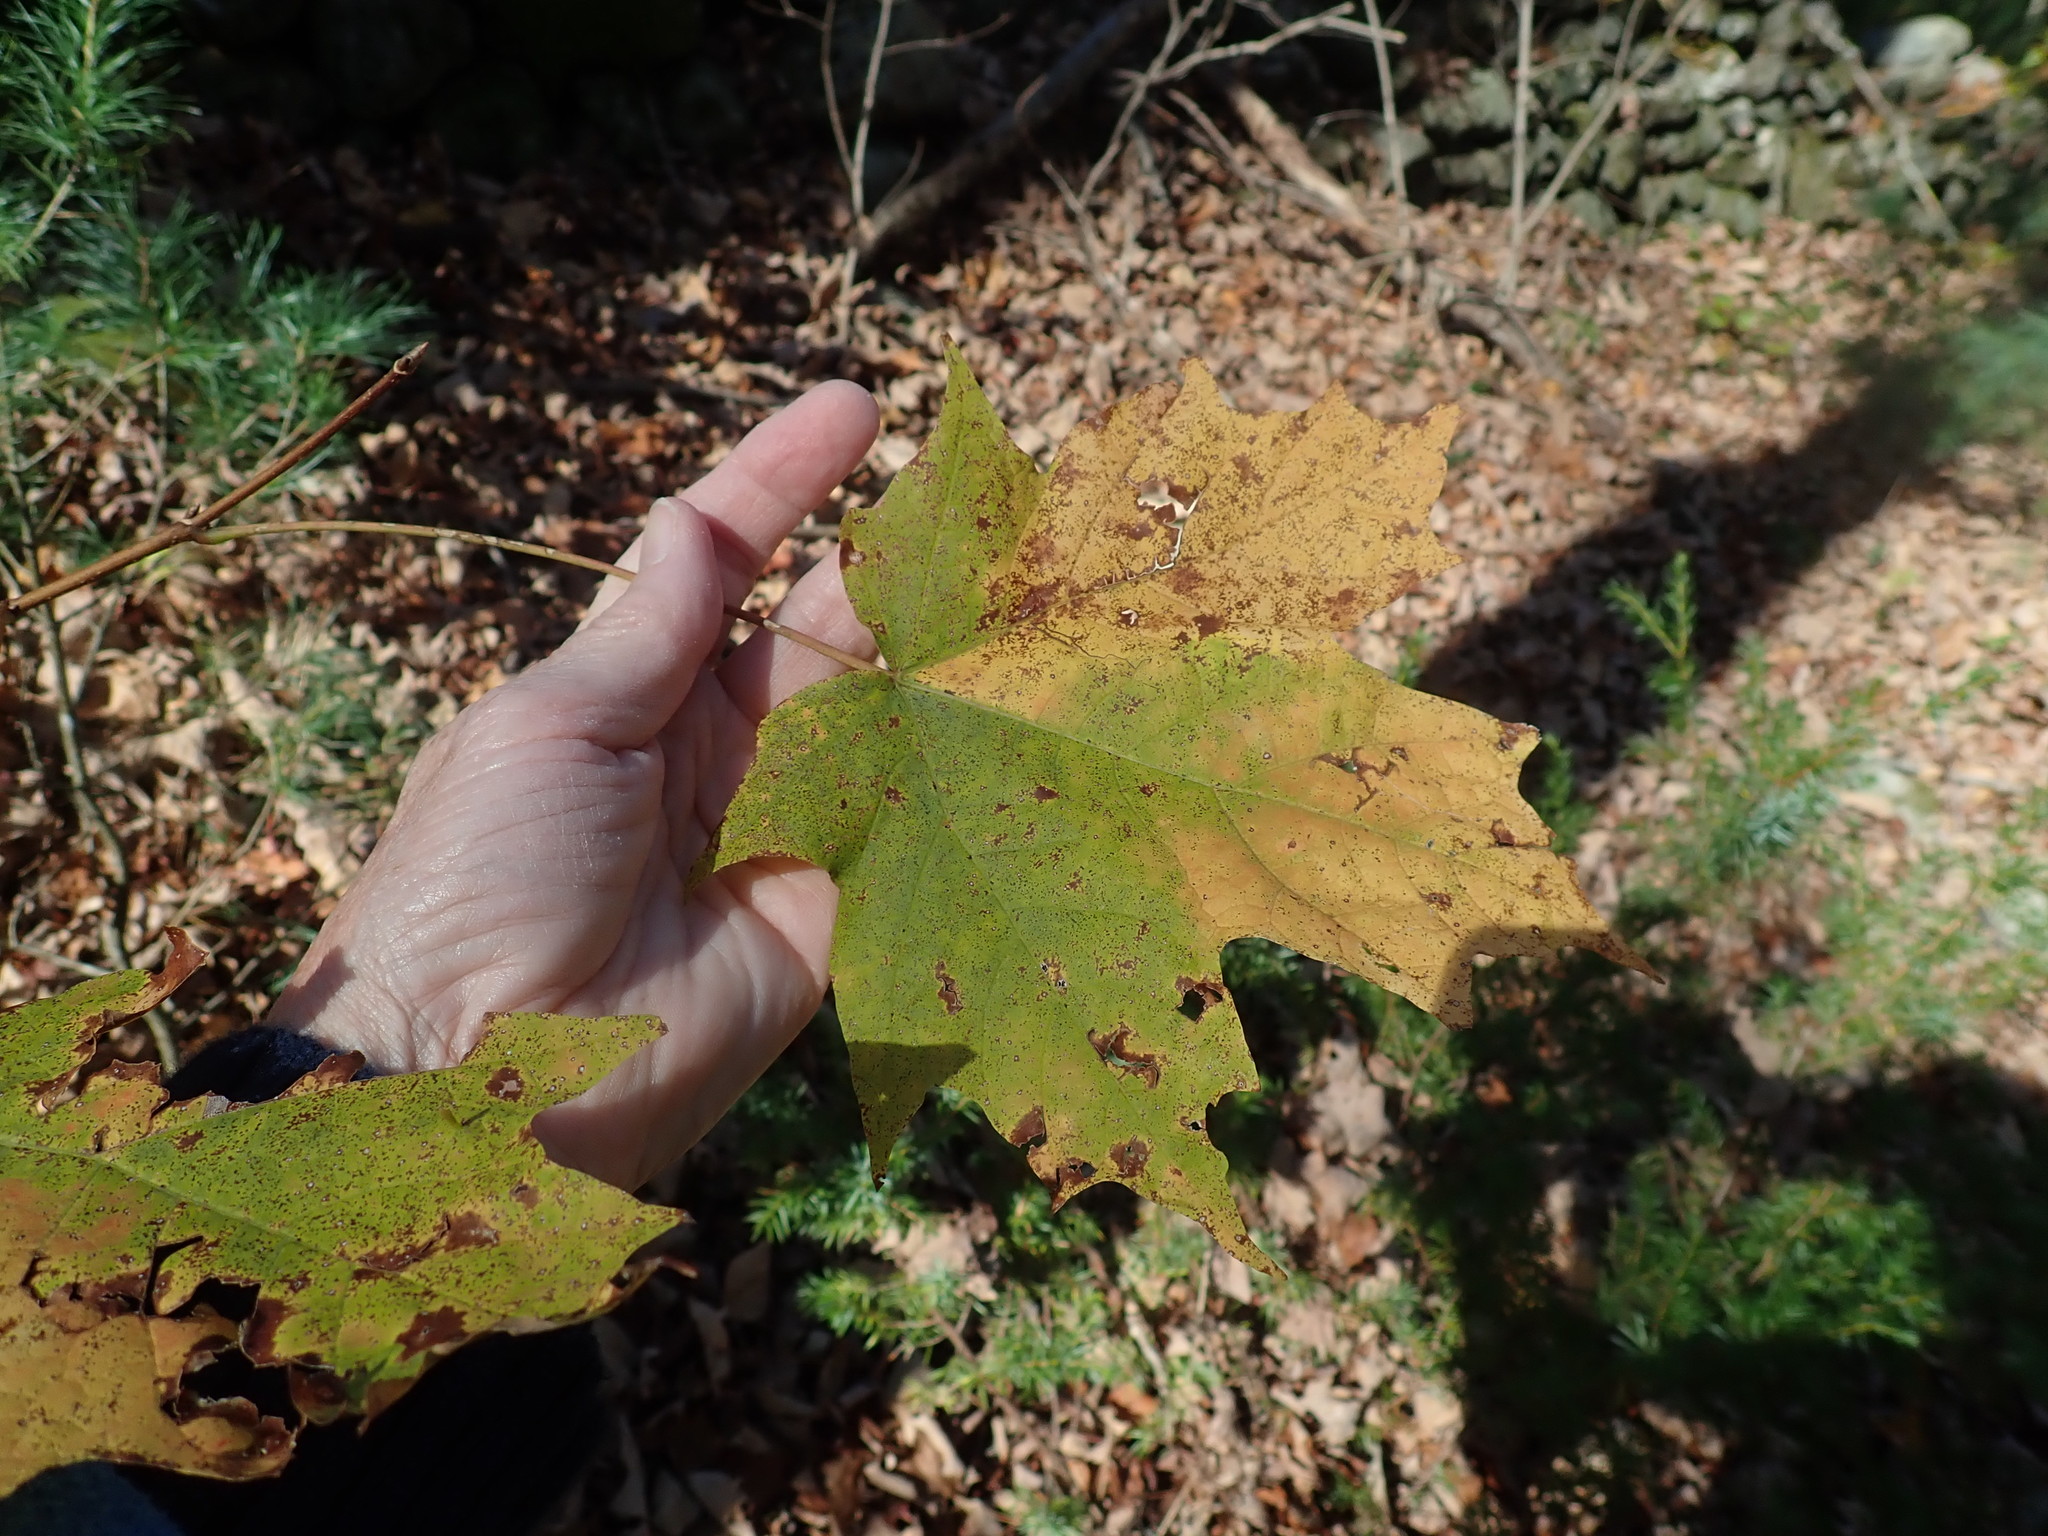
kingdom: Plantae
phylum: Tracheophyta
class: Magnoliopsida
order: Sapindales
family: Sapindaceae
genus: Acer
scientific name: Acer saccharum
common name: Sugar maple
